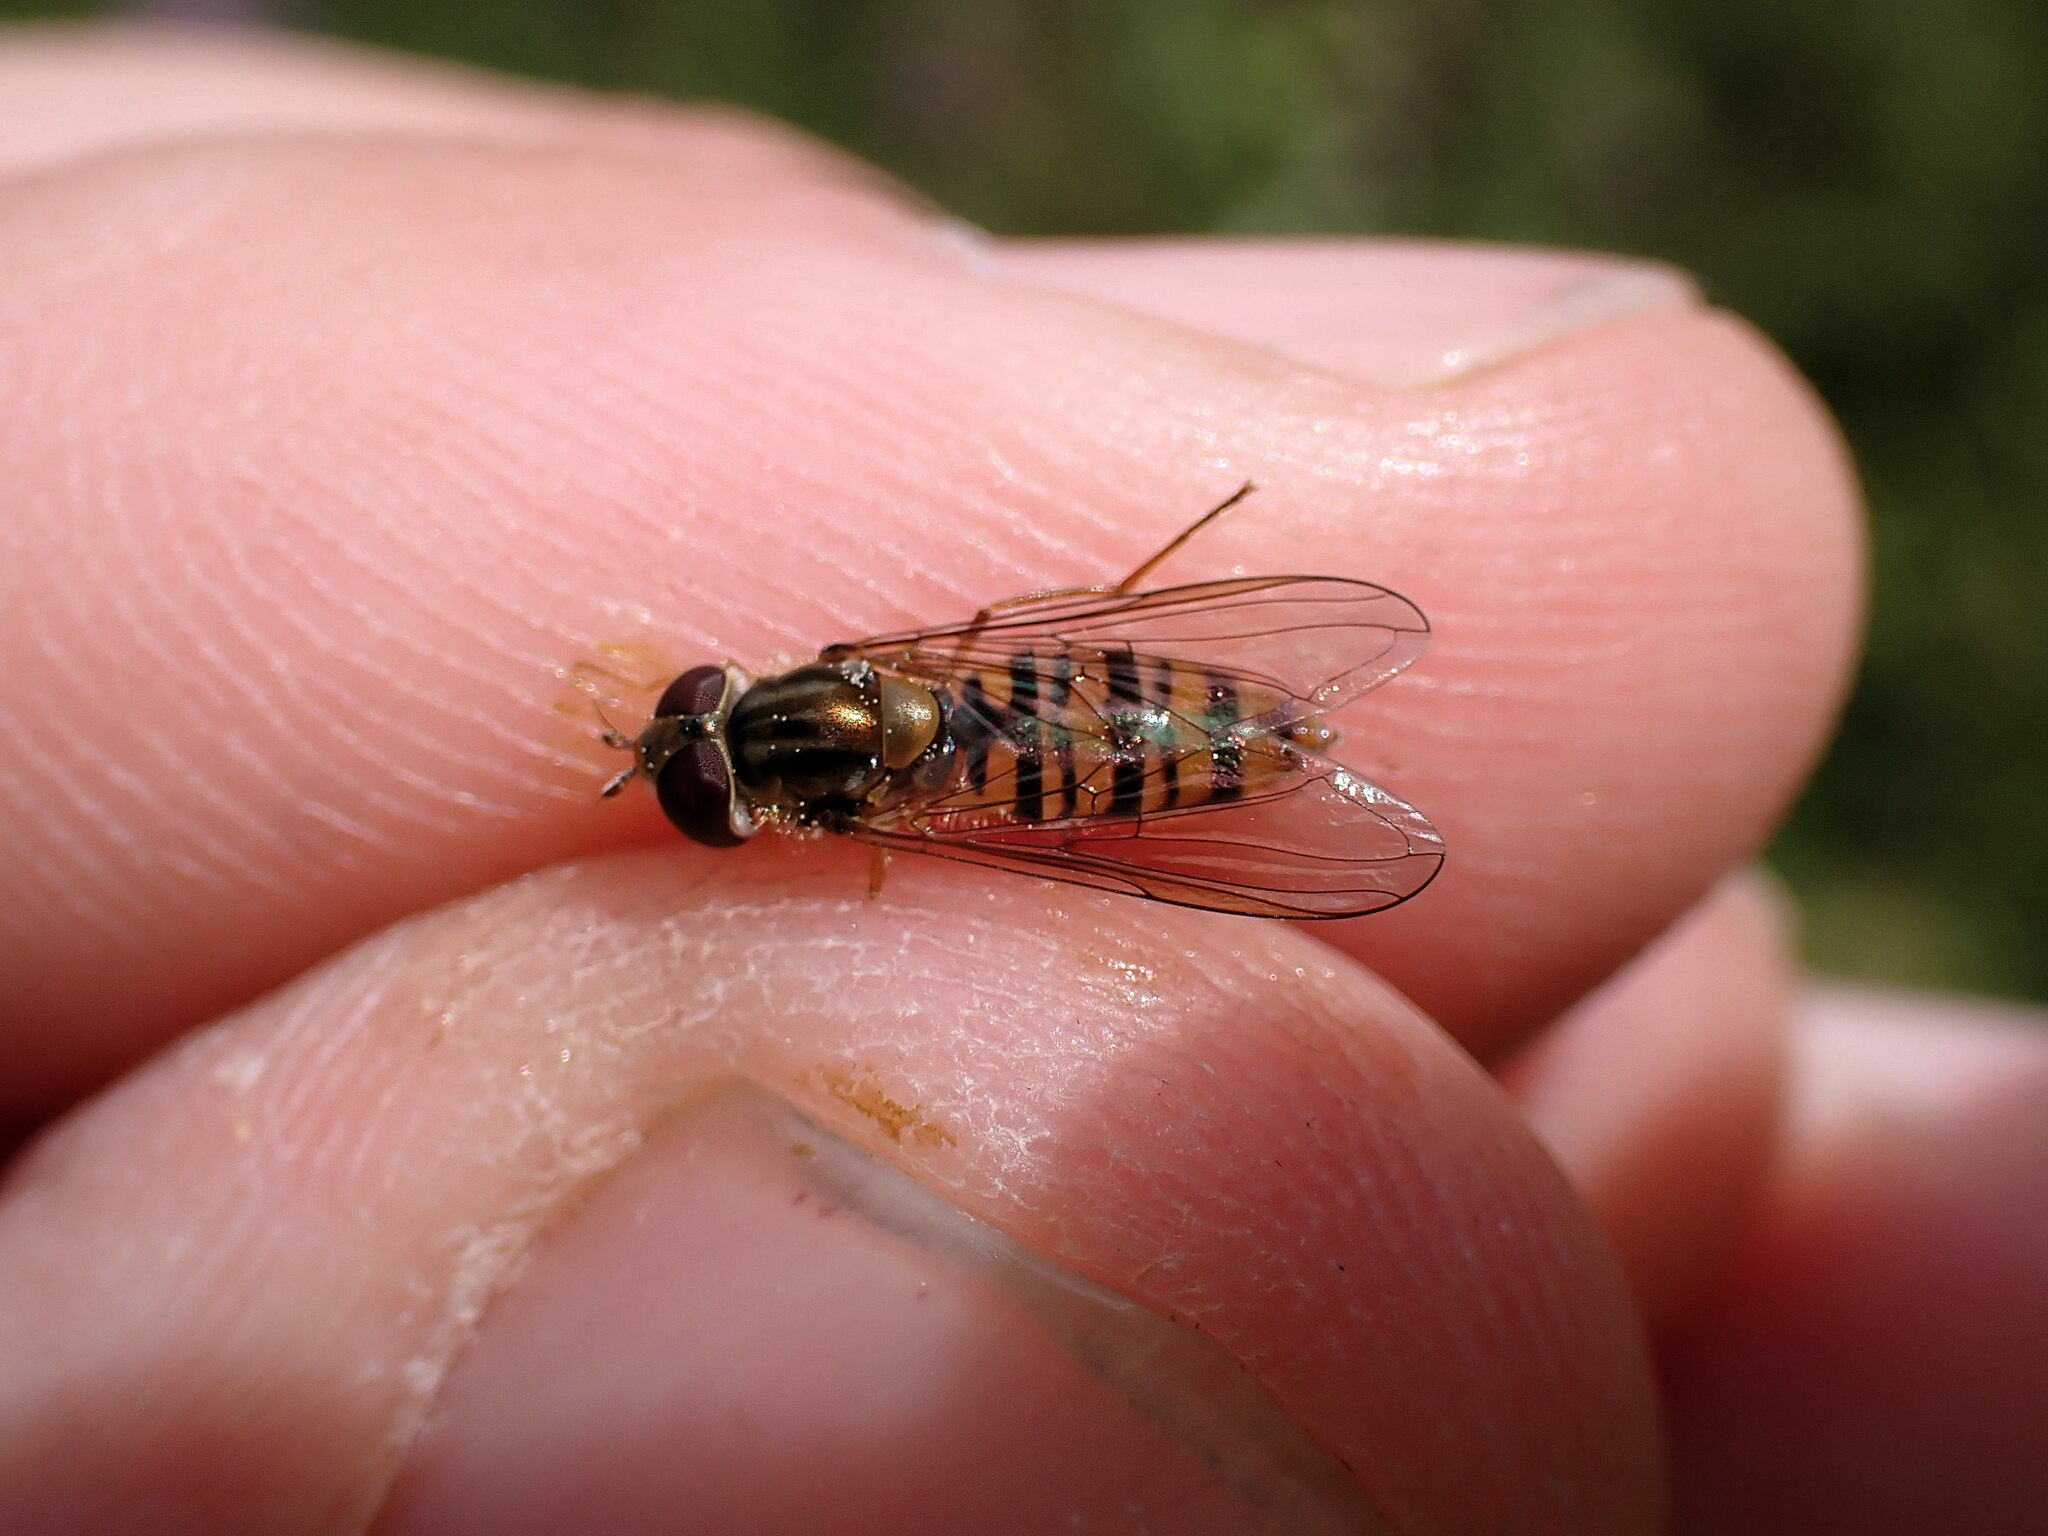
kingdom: Animalia
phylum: Arthropoda
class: Insecta
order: Diptera
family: Syrphidae
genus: Episyrphus
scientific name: Episyrphus balteatus
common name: Marmalade hoverfly
